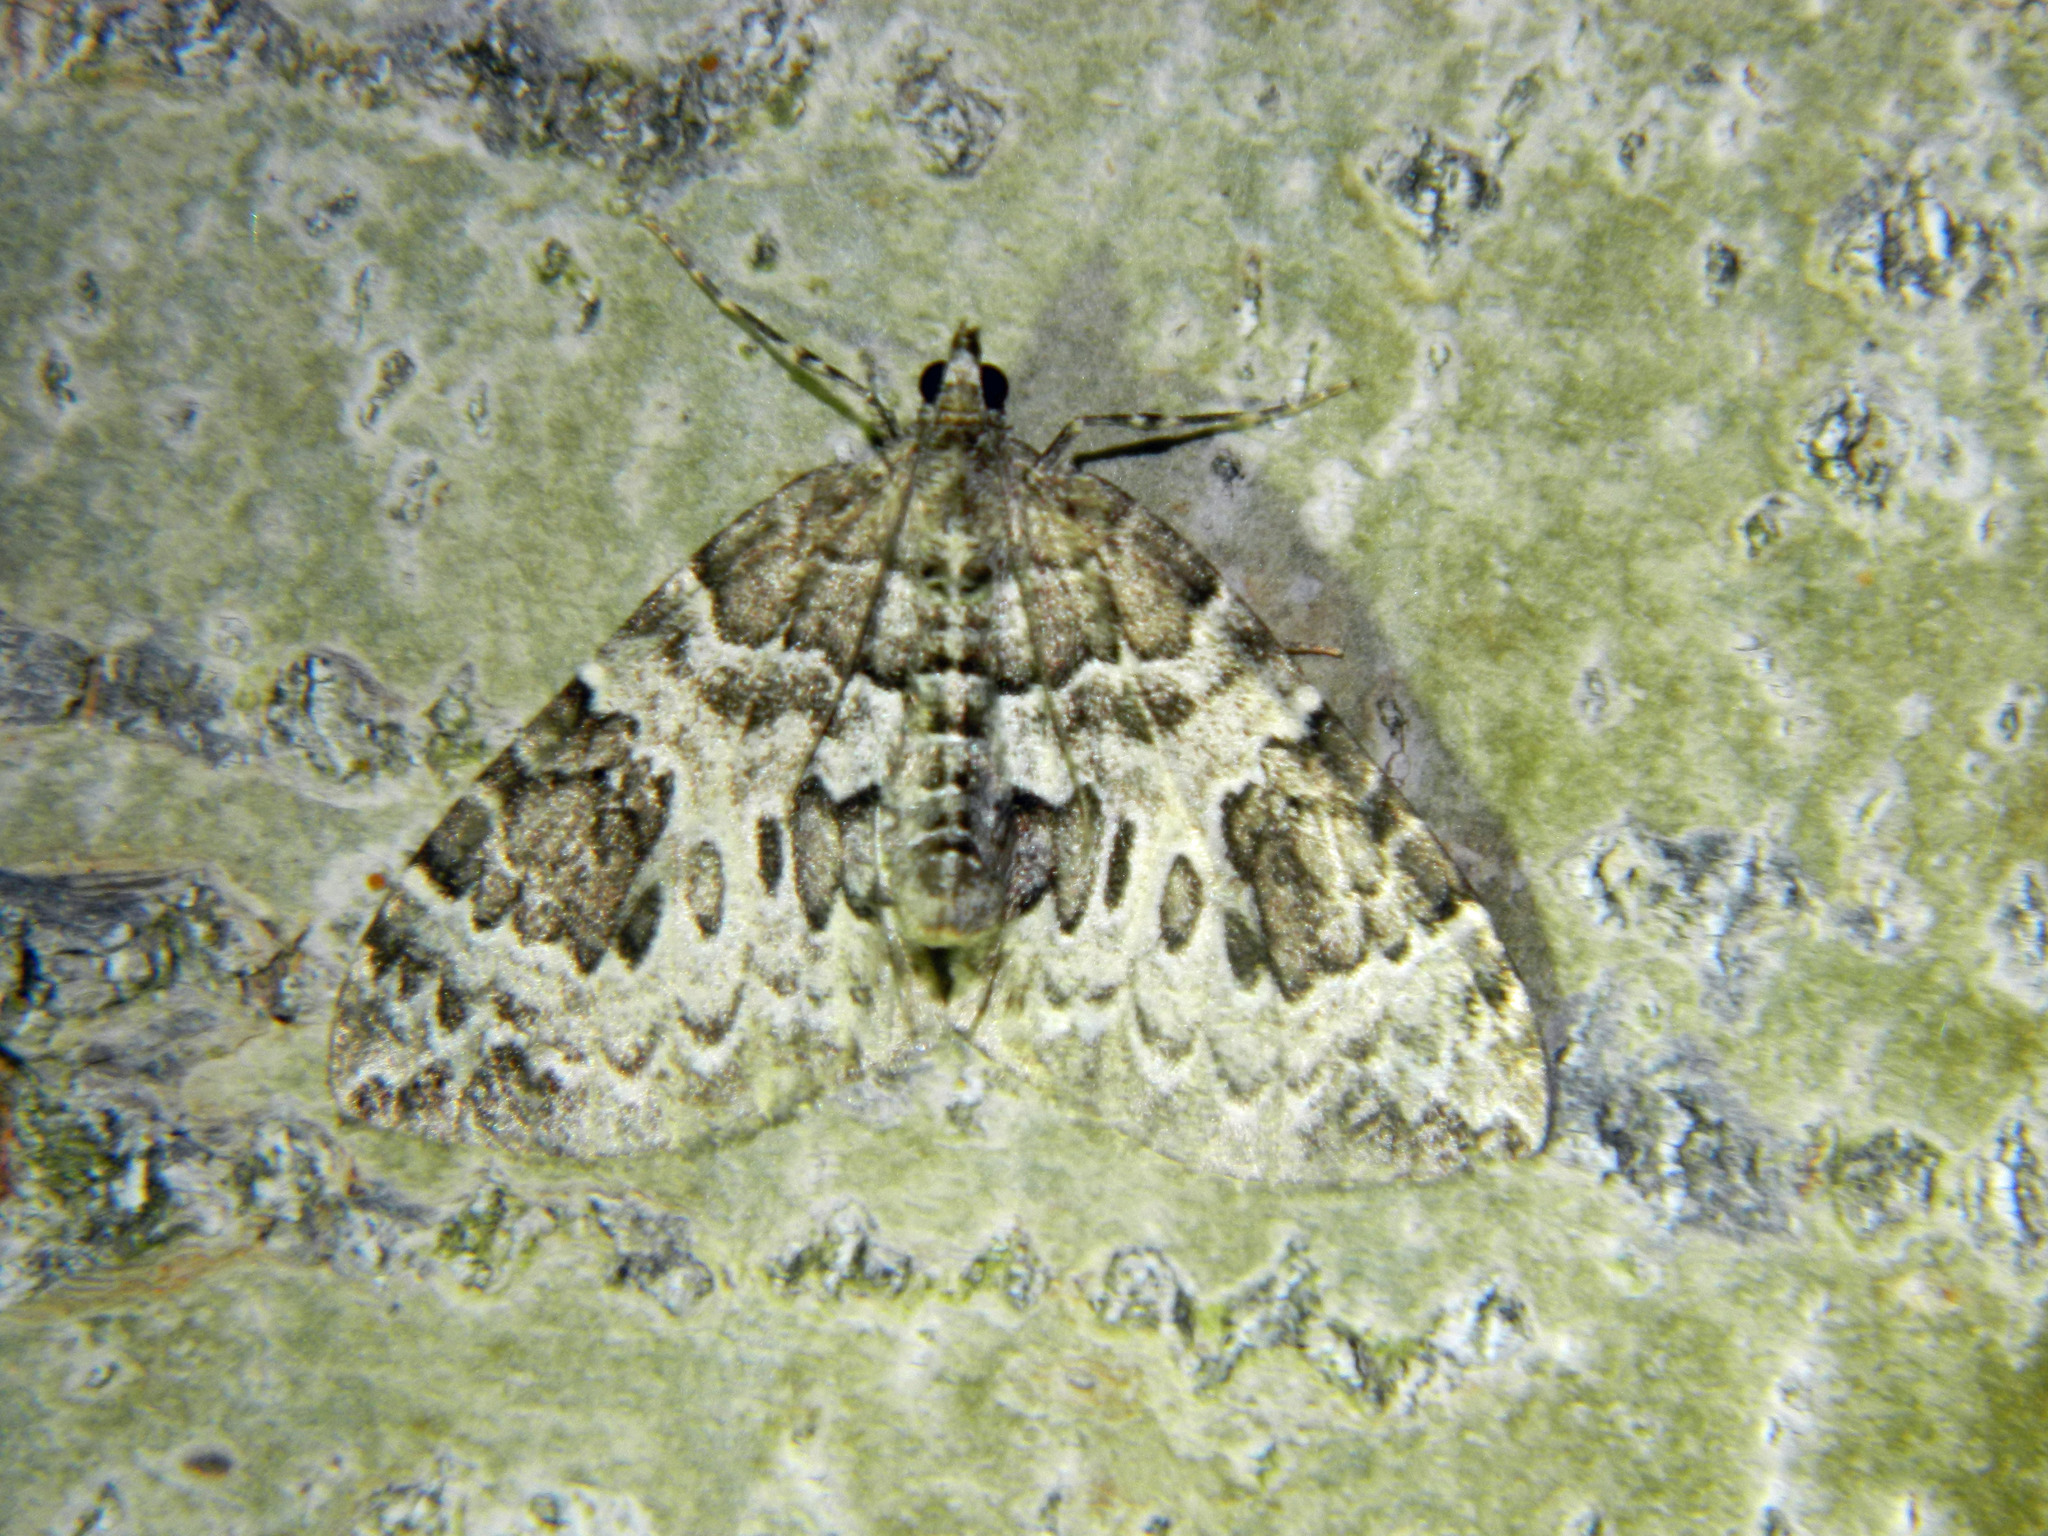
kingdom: Animalia
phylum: Arthropoda
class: Insecta
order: Lepidoptera
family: Geometridae
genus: Eulithis
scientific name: Eulithis explanata
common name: White eulithis
